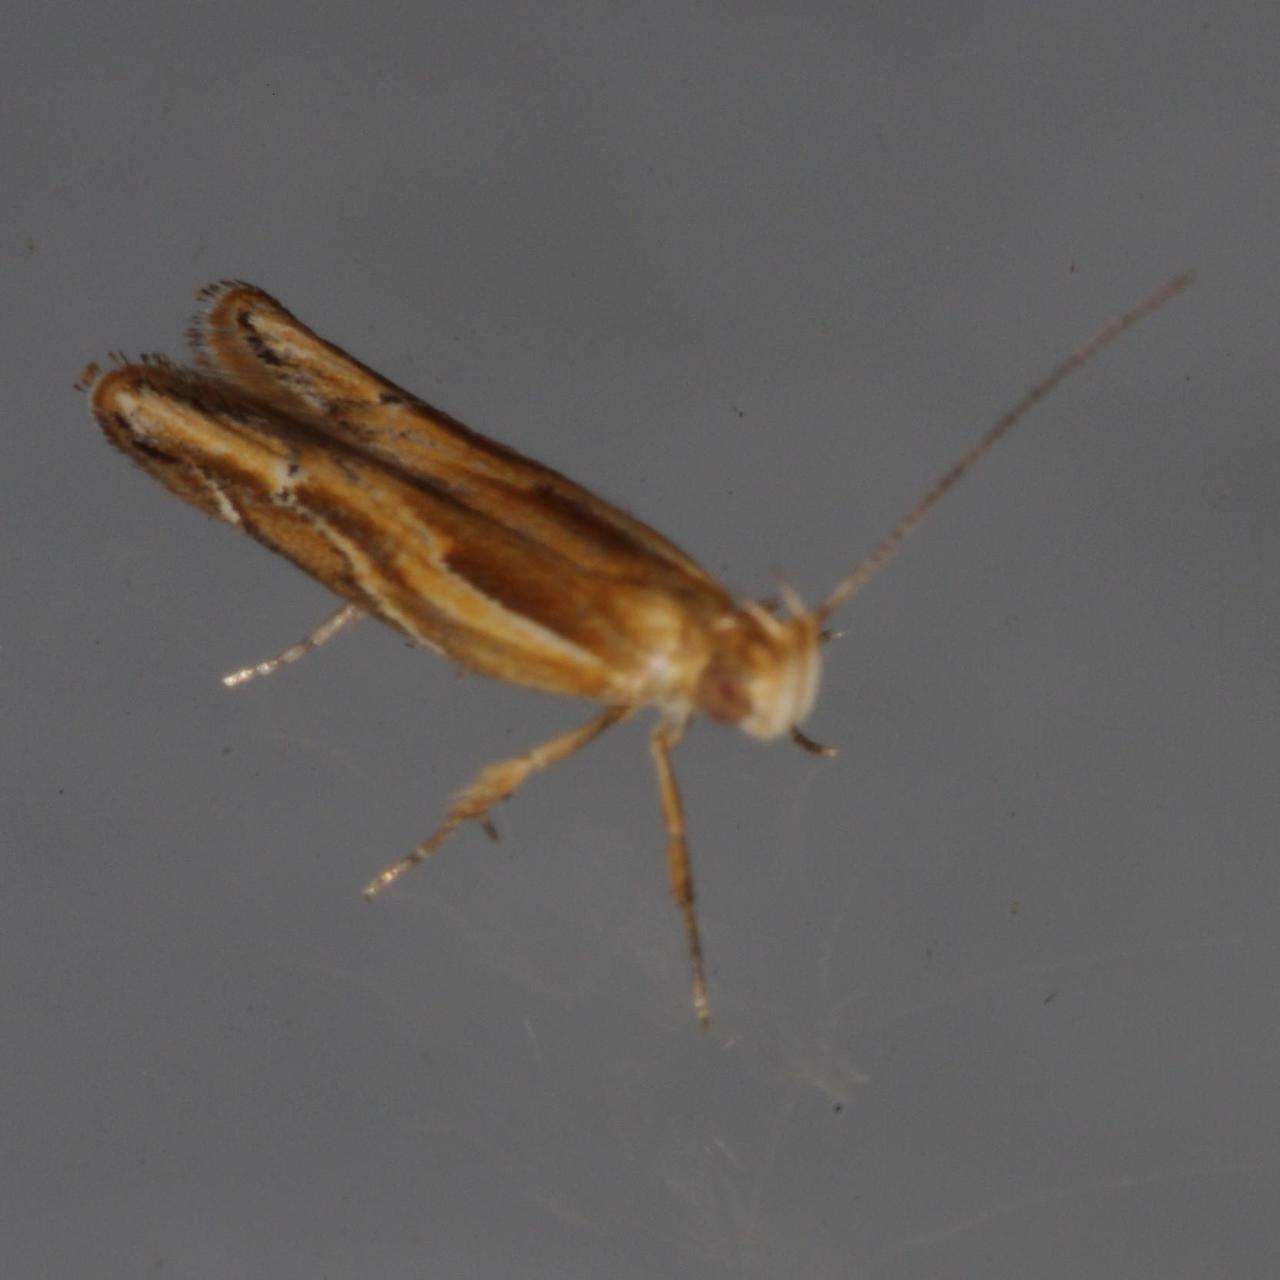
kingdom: Animalia
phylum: Arthropoda
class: Insecta
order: Lepidoptera
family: Depressariidae
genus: Eutorna
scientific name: Eutorna tricasis
